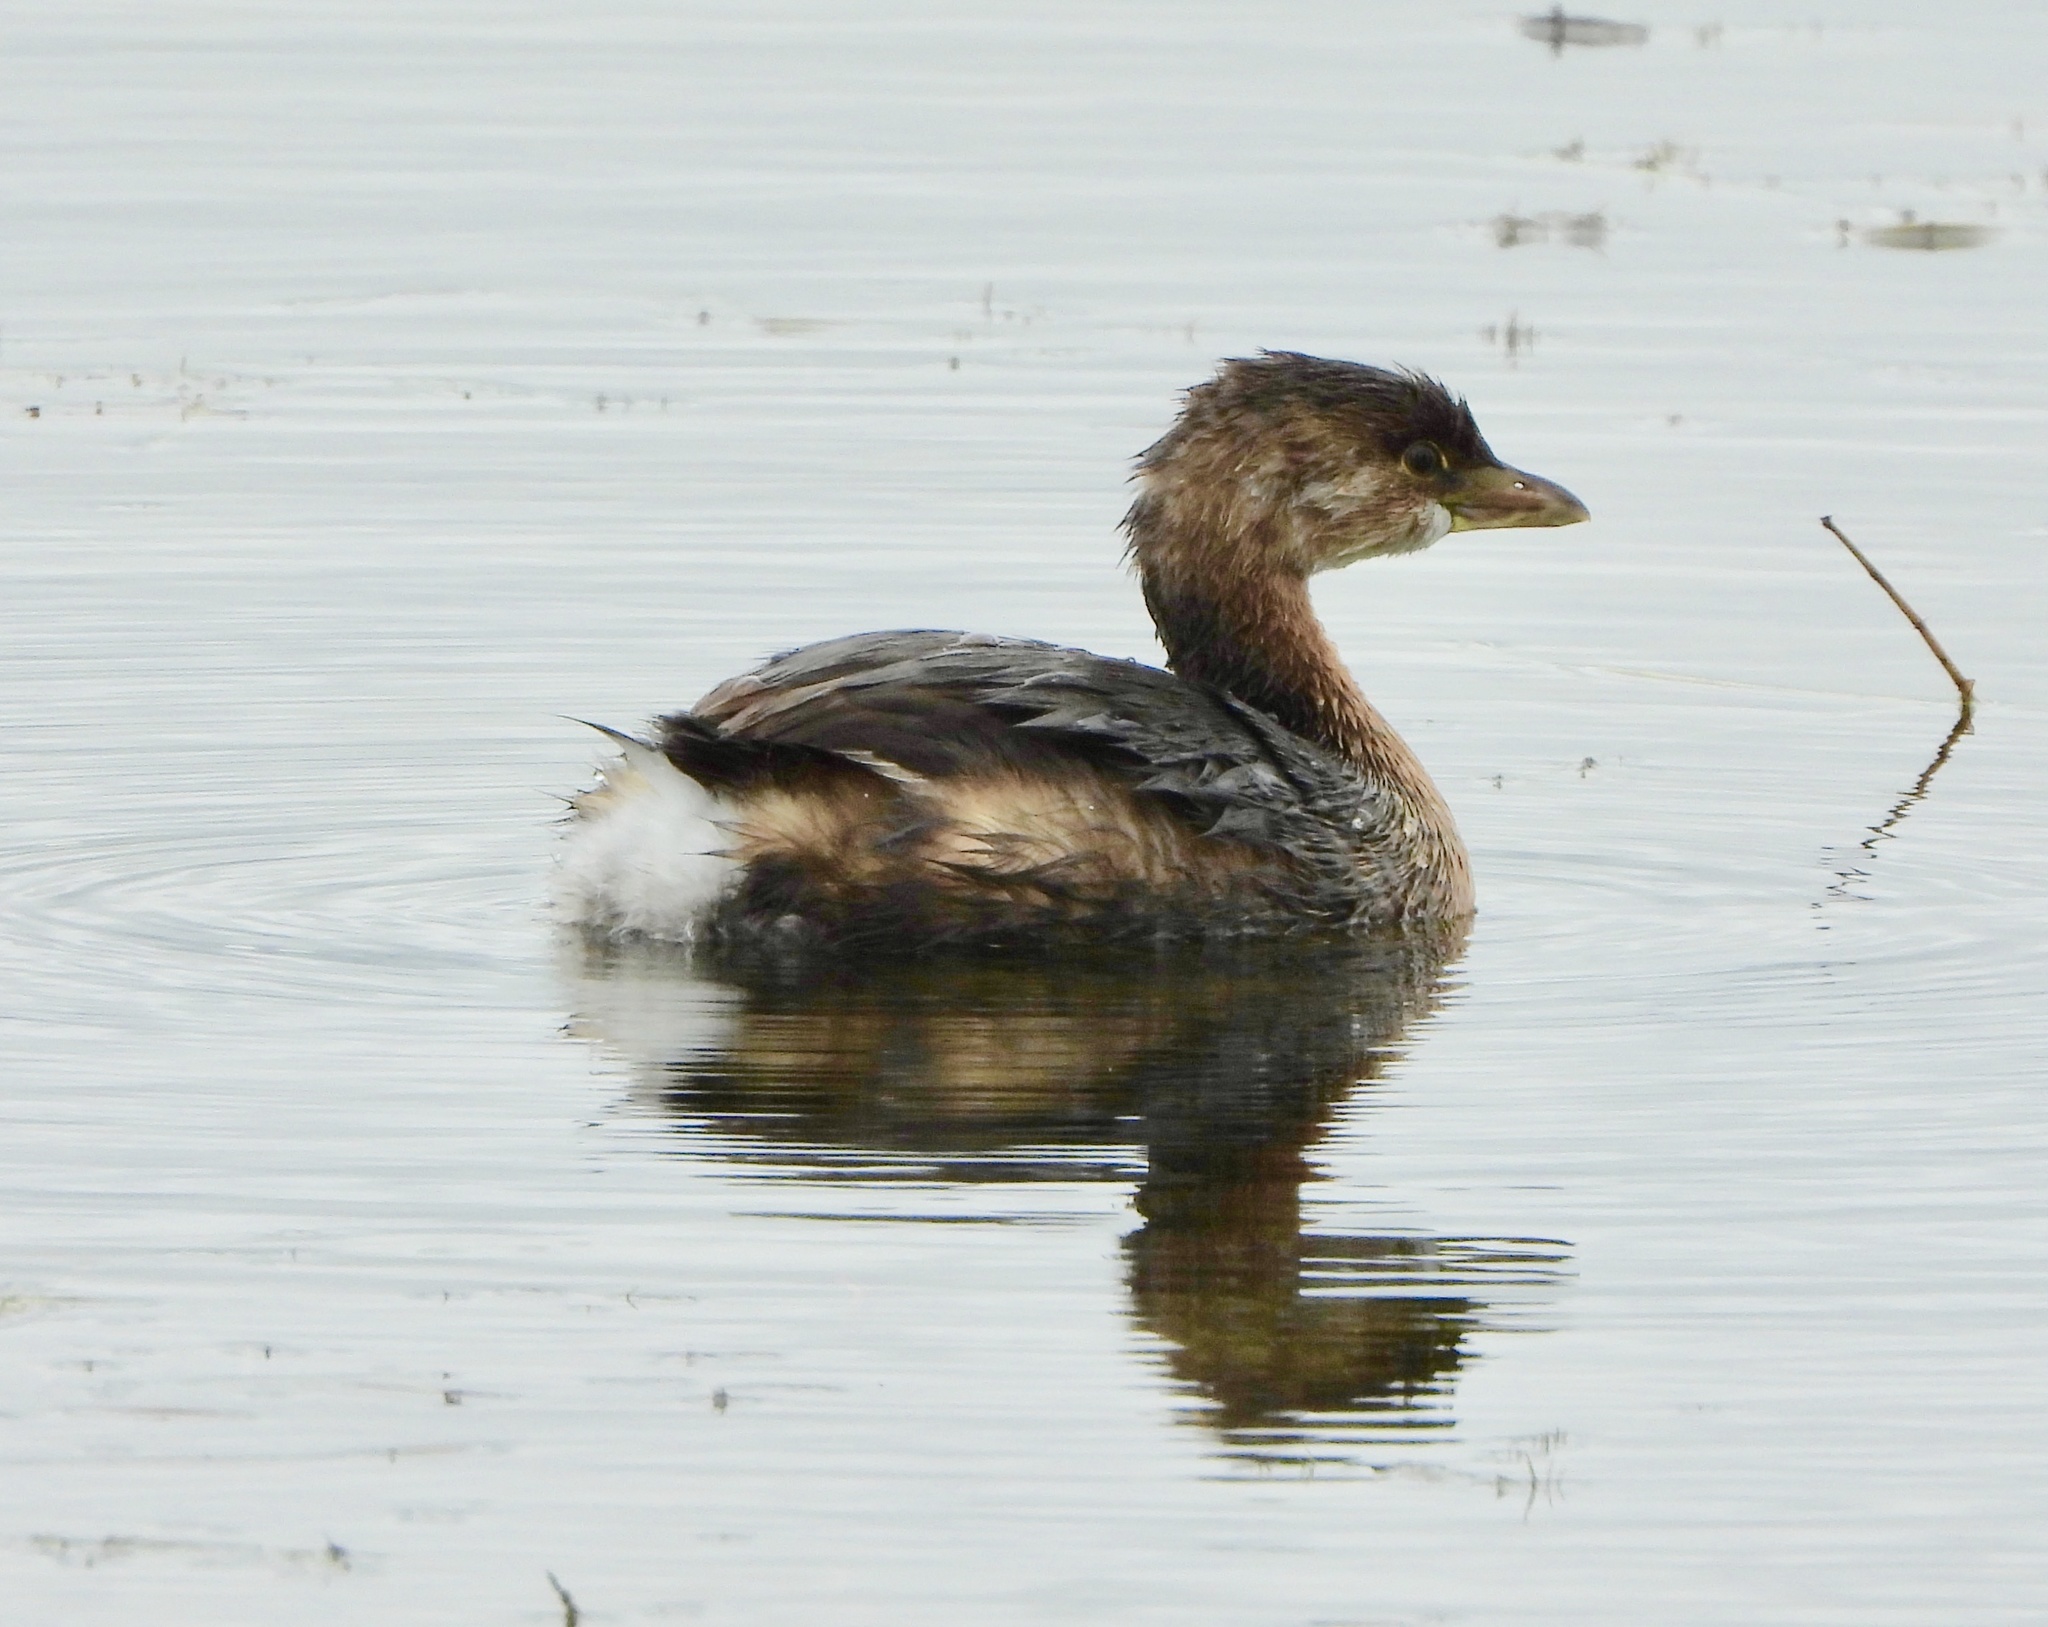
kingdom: Animalia
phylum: Chordata
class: Aves
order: Podicipediformes
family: Podicipedidae
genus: Podilymbus
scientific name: Podilymbus podiceps
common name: Pied-billed grebe
